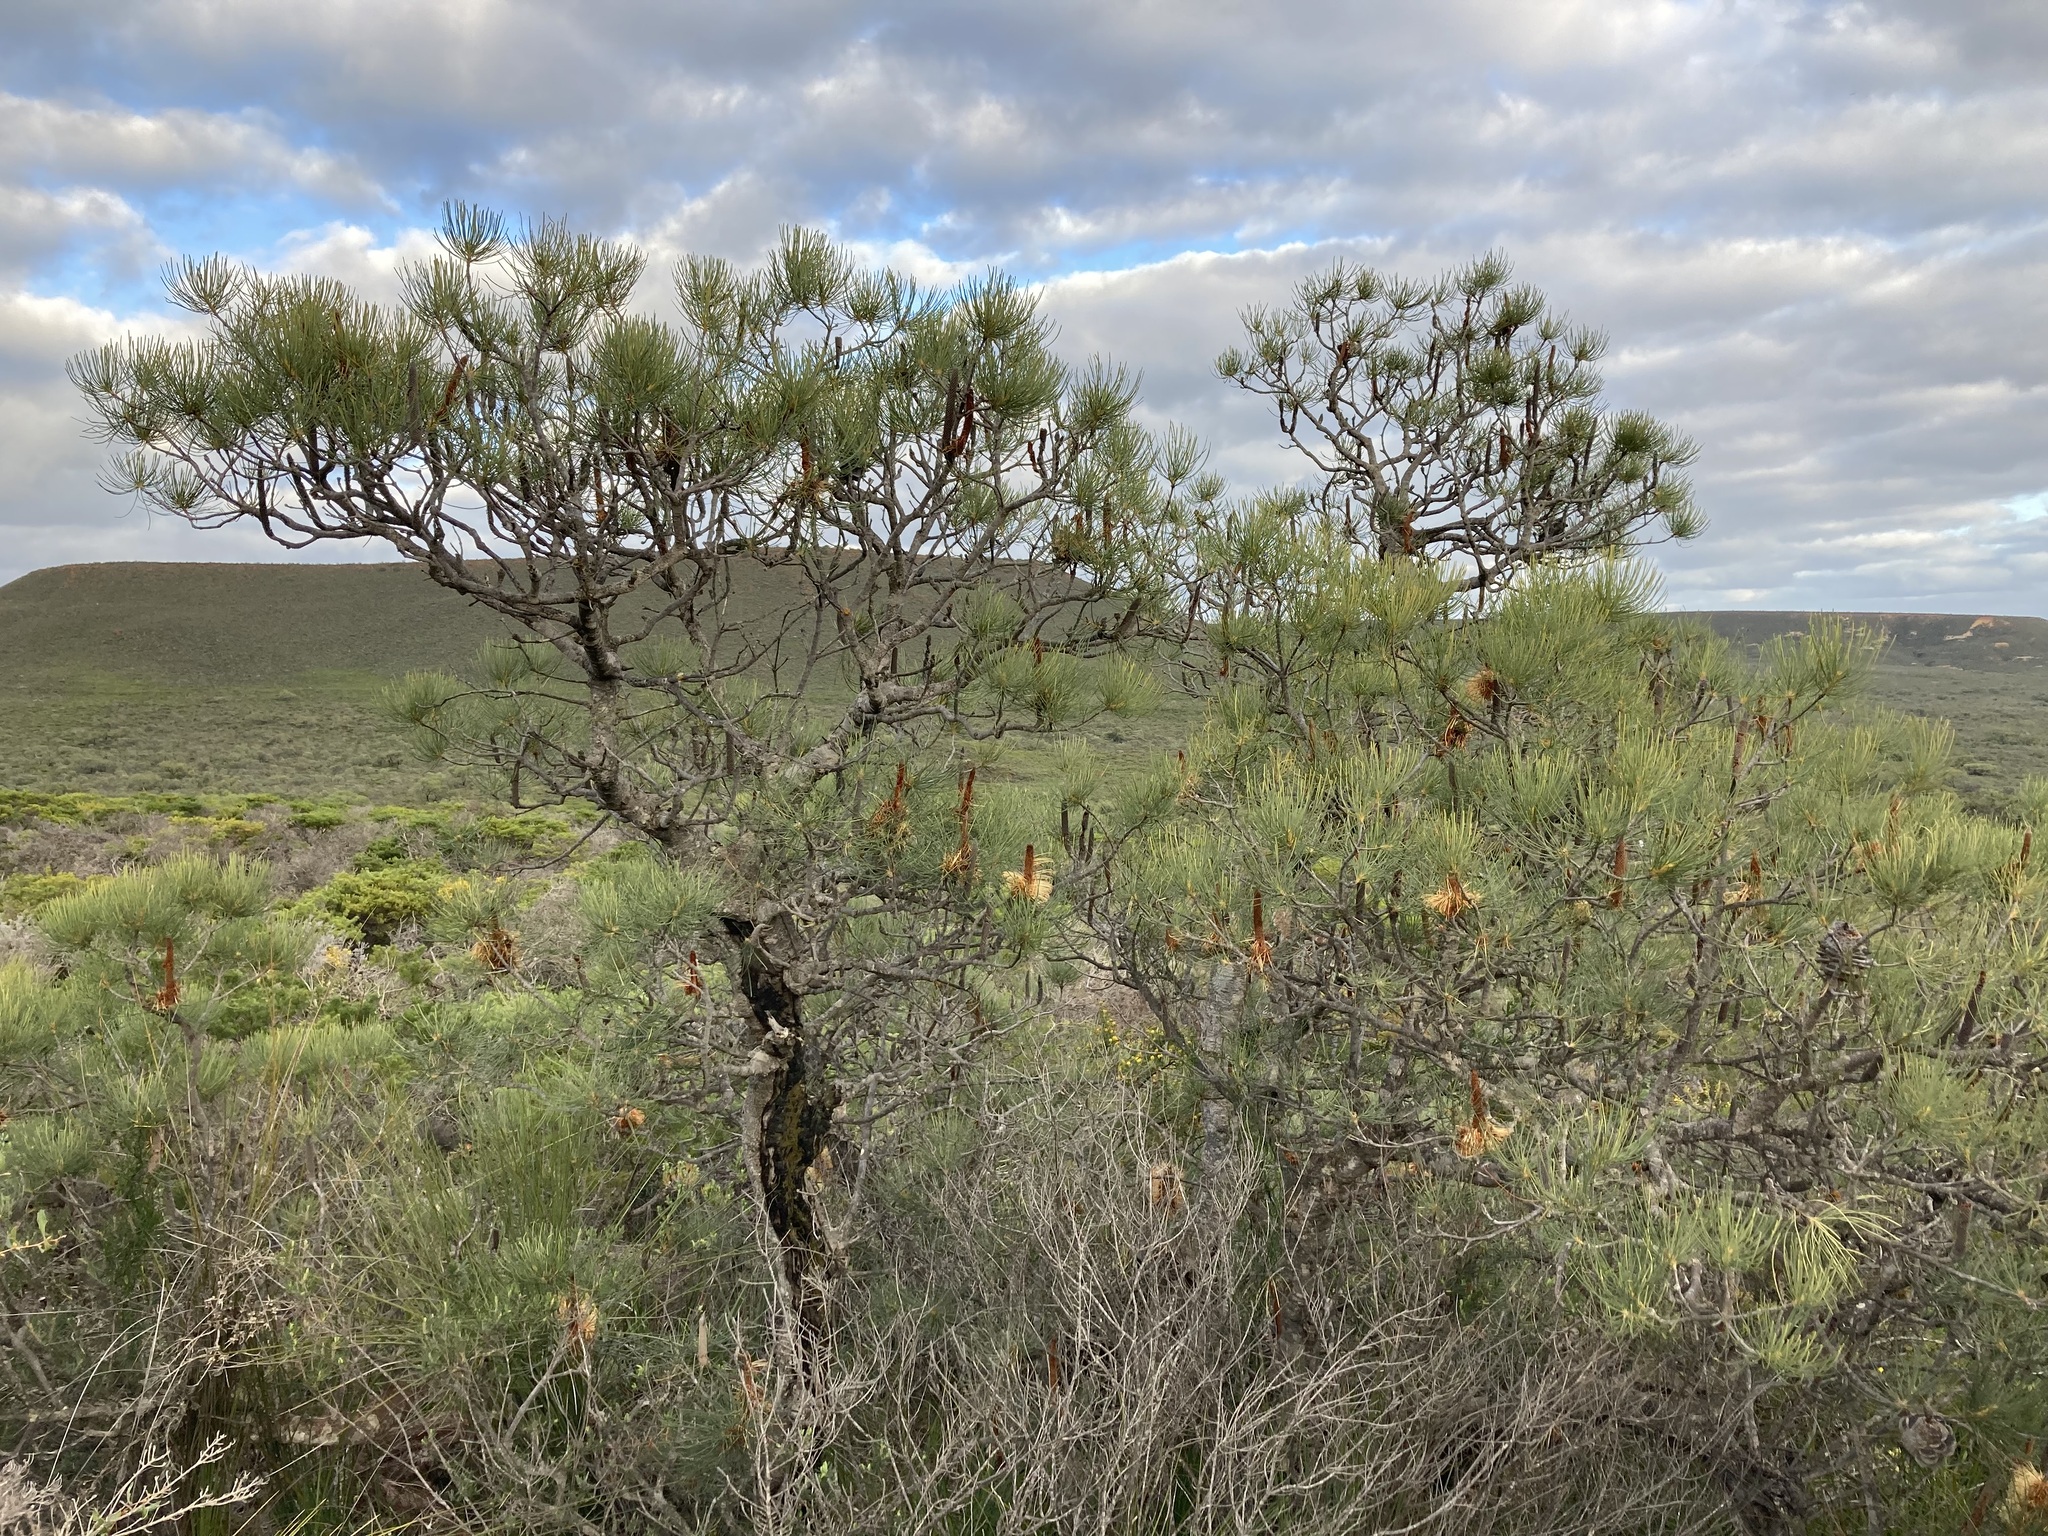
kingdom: Plantae
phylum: Tracheophyta
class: Magnoliopsida
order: Proteales
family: Proteaceae
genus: Banksia
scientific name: Banksia tricuspis
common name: Lesueur banksia
